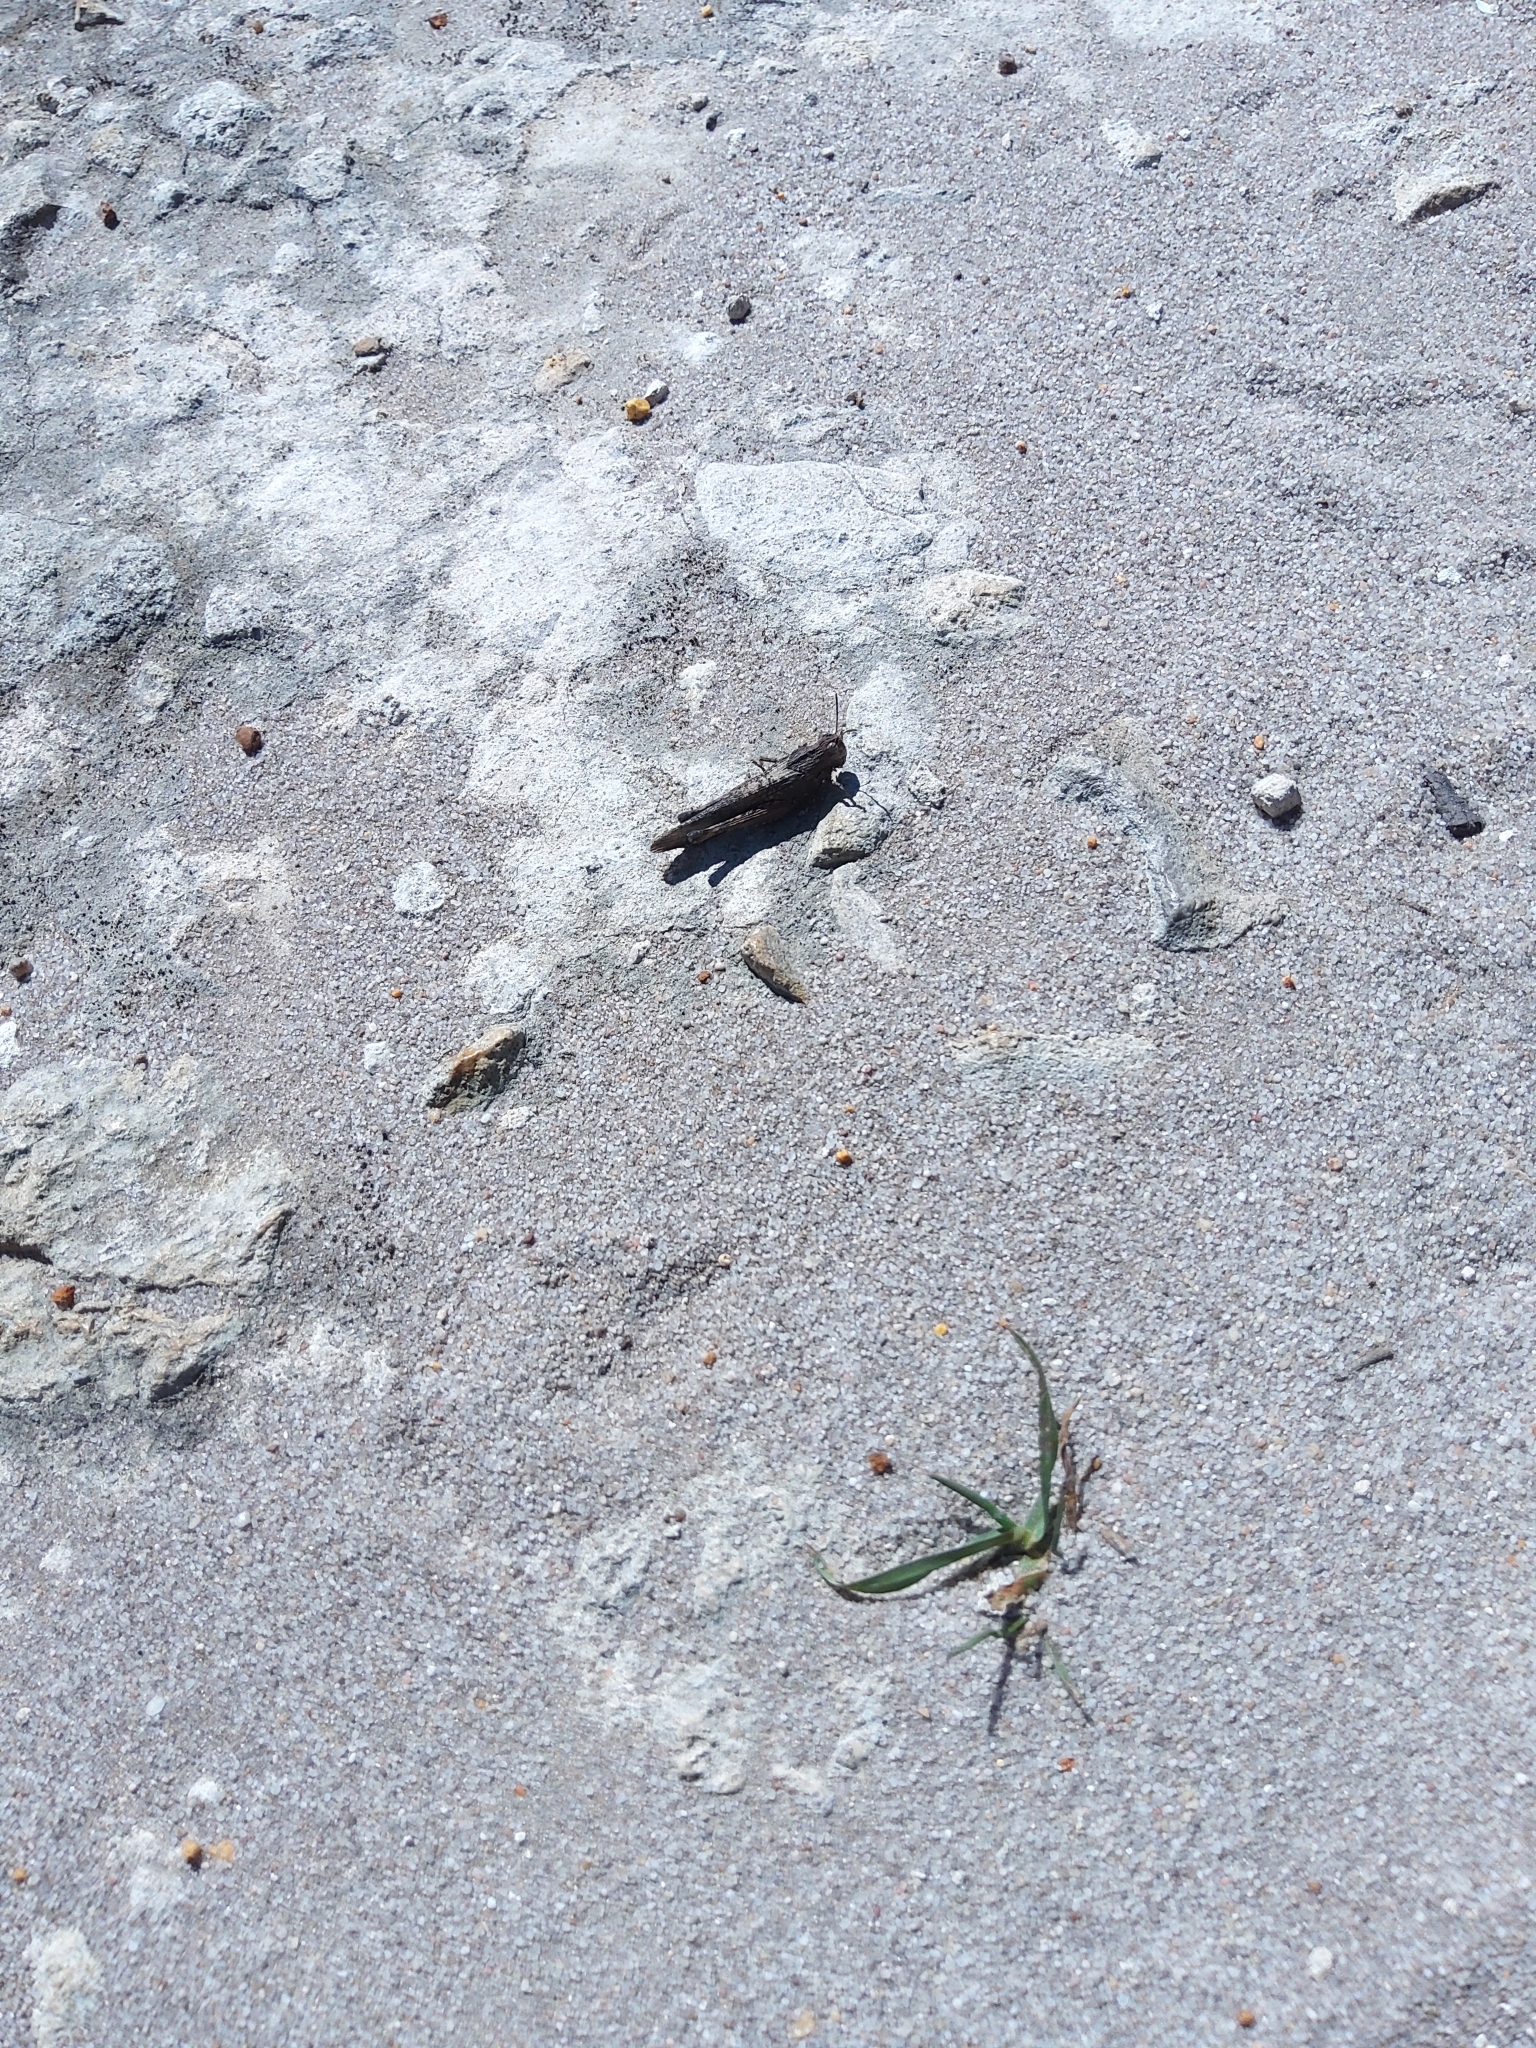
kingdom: Animalia
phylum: Arthropoda
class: Insecta
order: Orthoptera
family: Acrididae
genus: Scintharista
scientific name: Scintharista saucia
